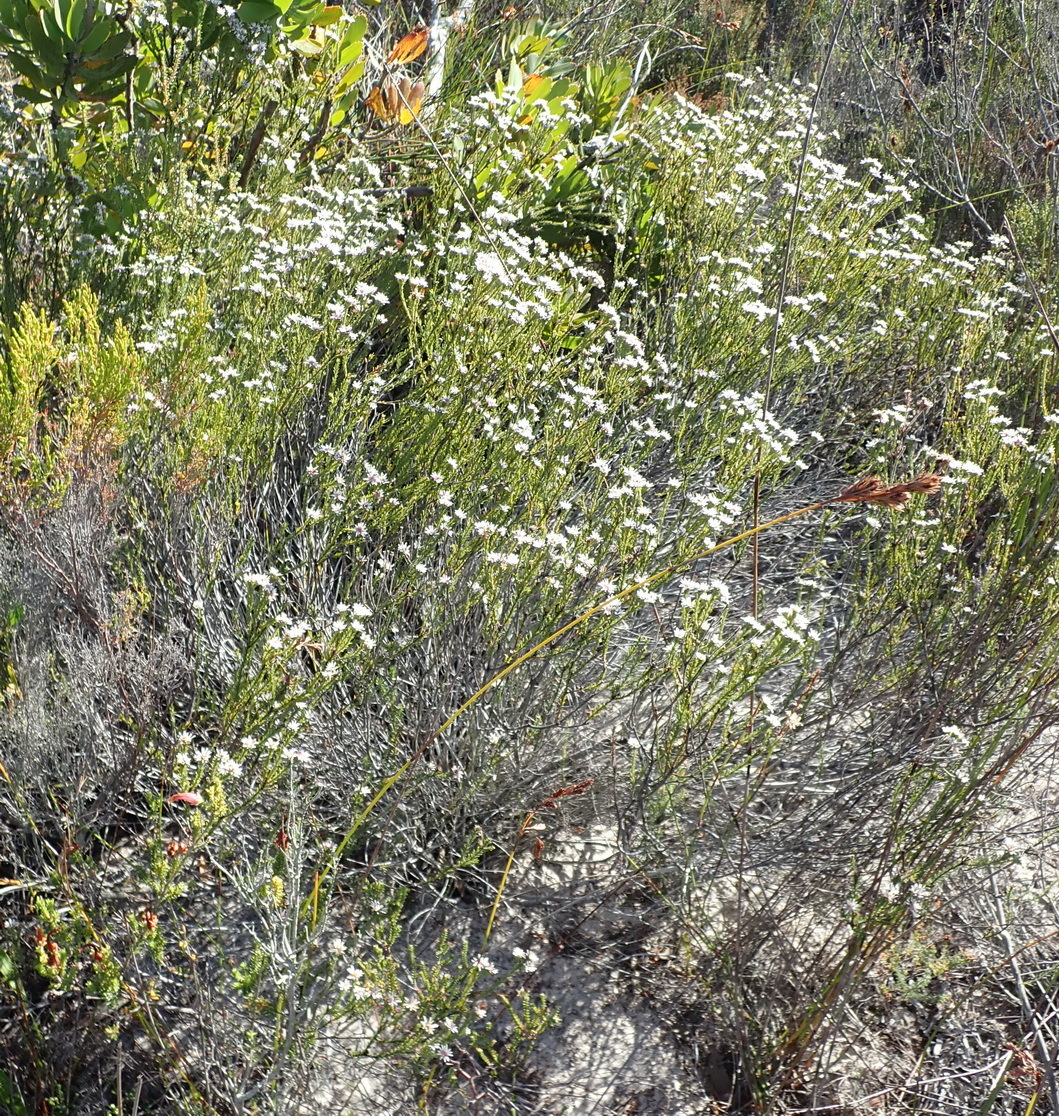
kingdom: Plantae
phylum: Tracheophyta
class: Magnoliopsida
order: Bruniales
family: Bruniaceae
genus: Staavia
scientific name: Staavia radiata
